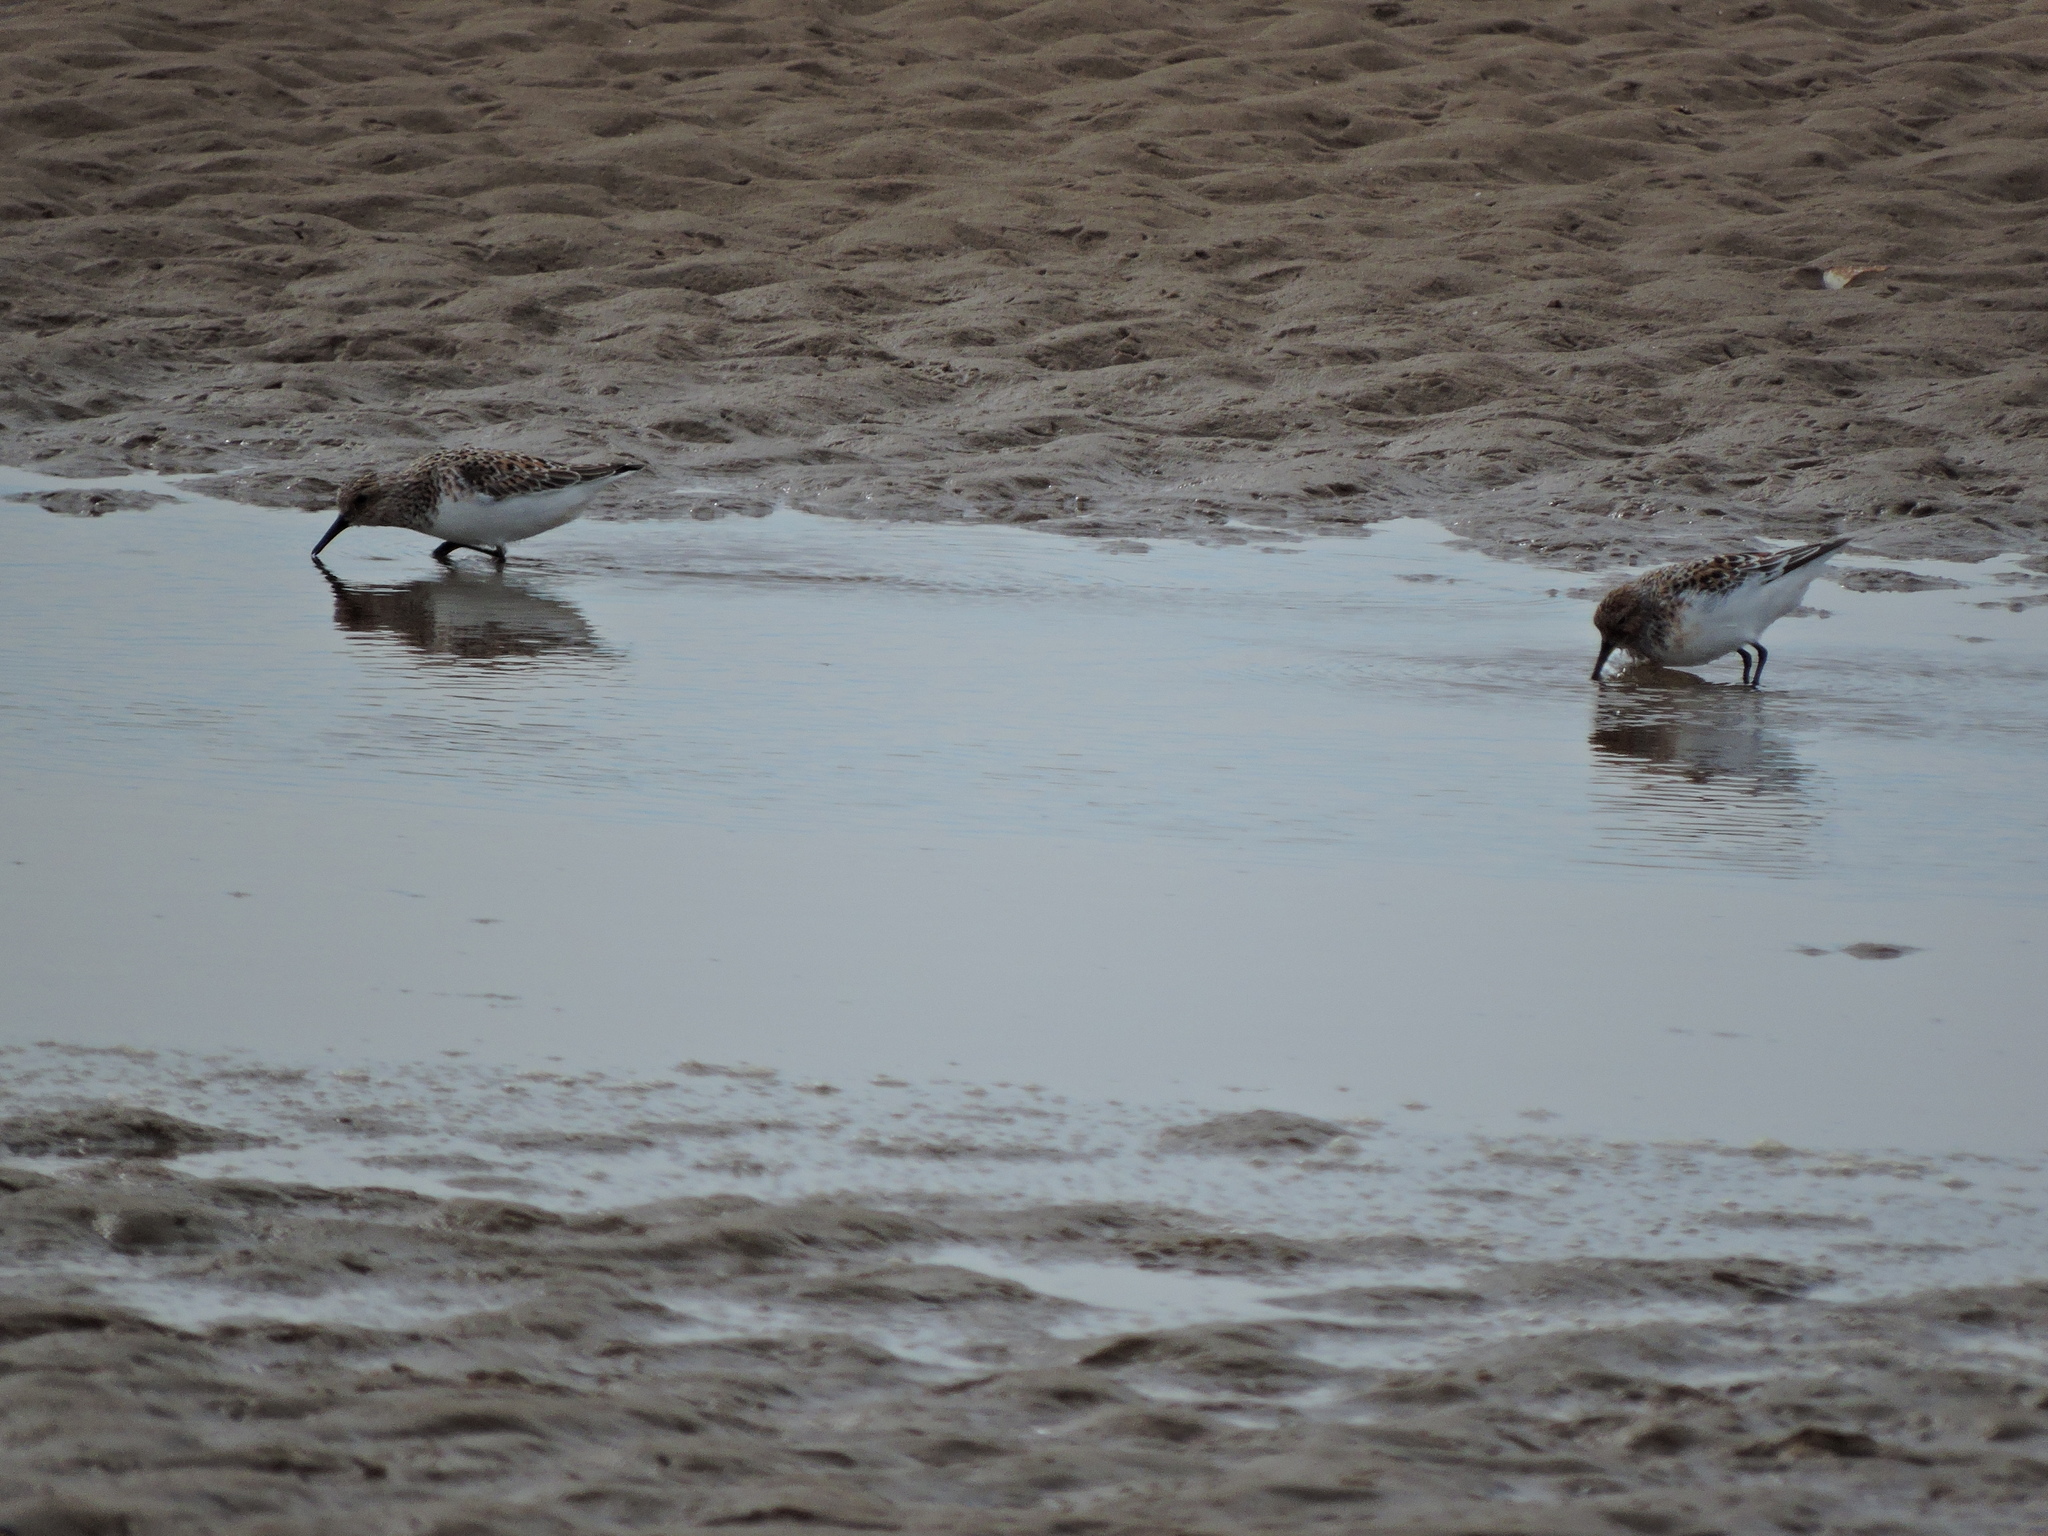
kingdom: Animalia
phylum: Chordata
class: Aves
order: Charadriiformes
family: Scolopacidae
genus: Calidris
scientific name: Calidris alba
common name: Sanderling
